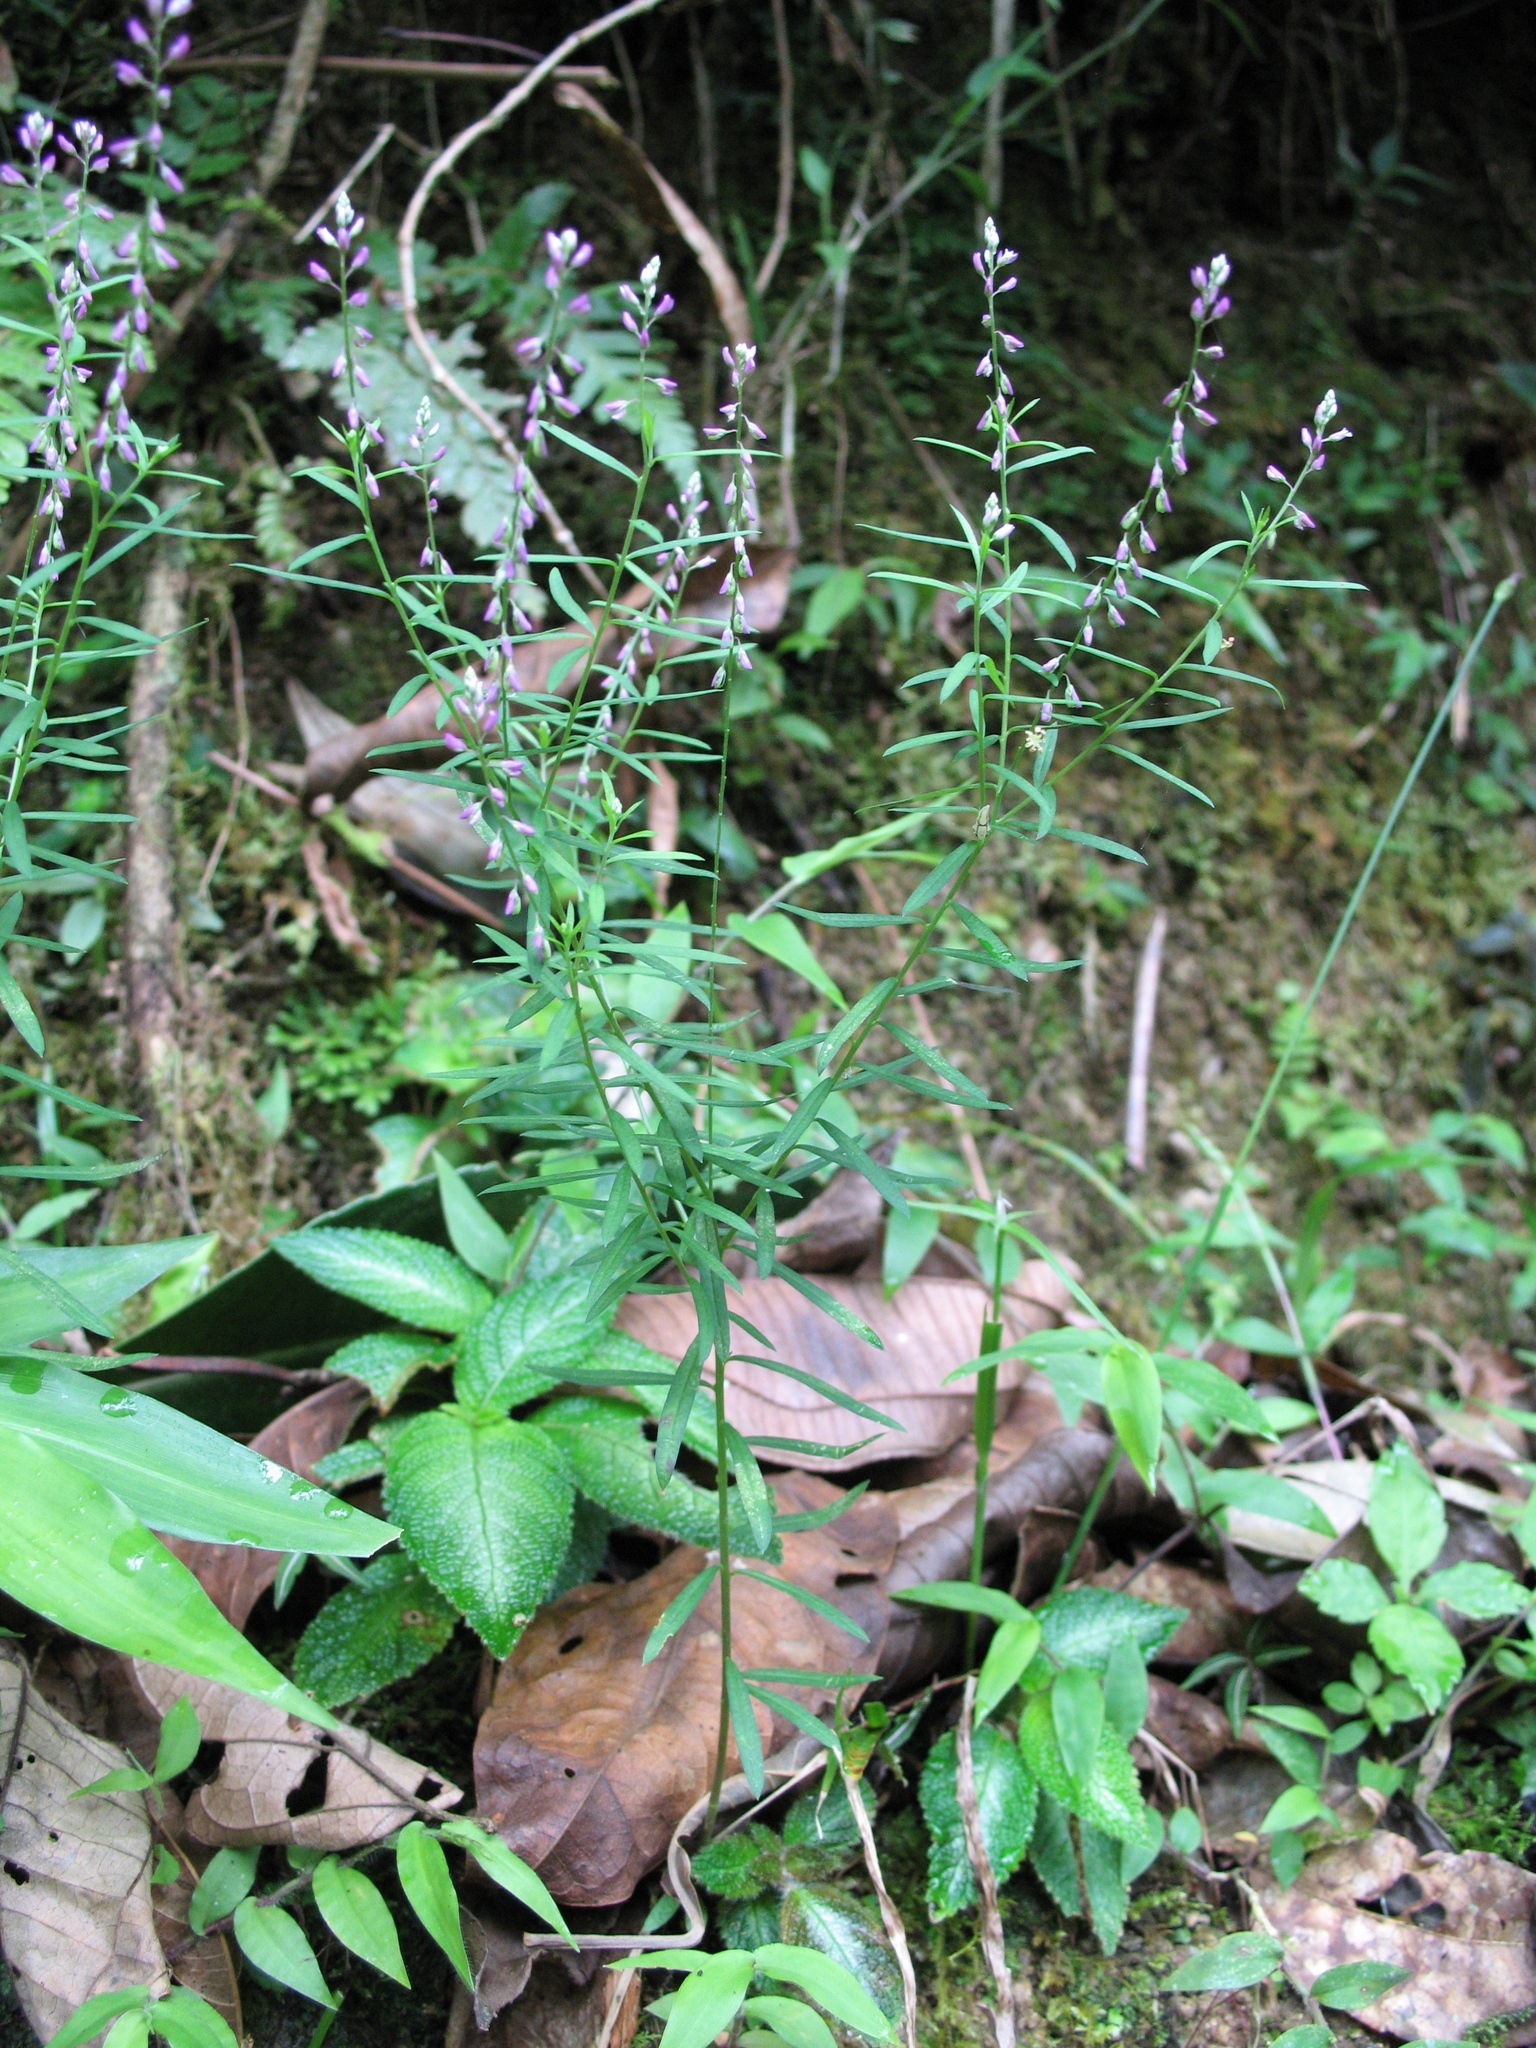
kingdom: Plantae
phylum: Tracheophyta
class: Magnoliopsida
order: Fabales
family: Polygalaceae
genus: Polygala
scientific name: Polygala paniculata
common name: Orosne
